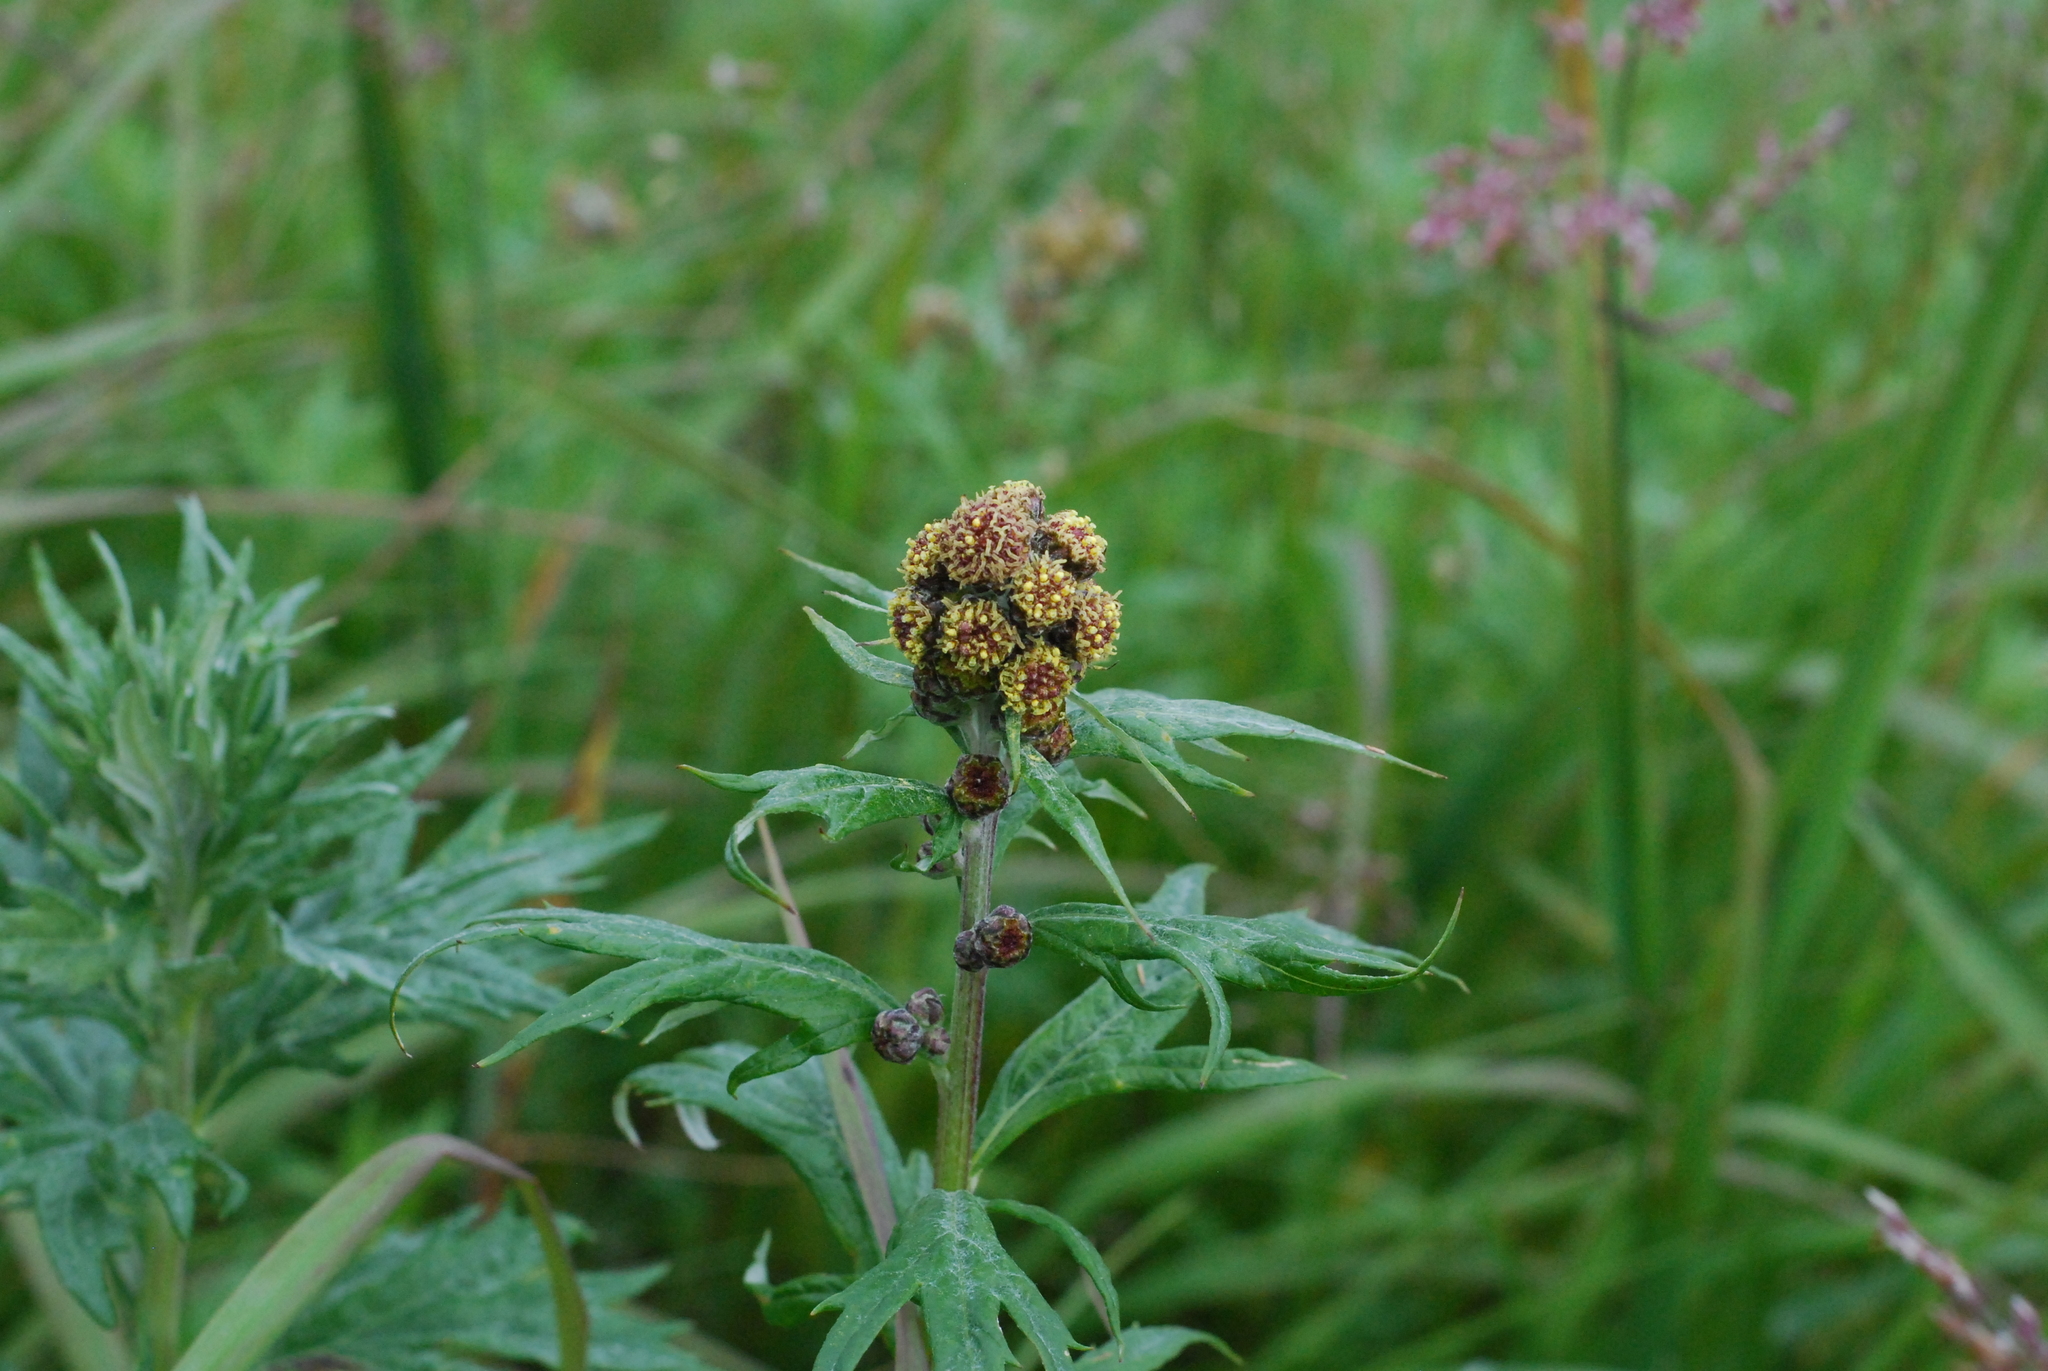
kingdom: Plantae
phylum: Tracheophyta
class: Magnoliopsida
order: Asterales
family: Asteraceae
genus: Artemisia
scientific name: Artemisia tilesii
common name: Aleutian mugwort
